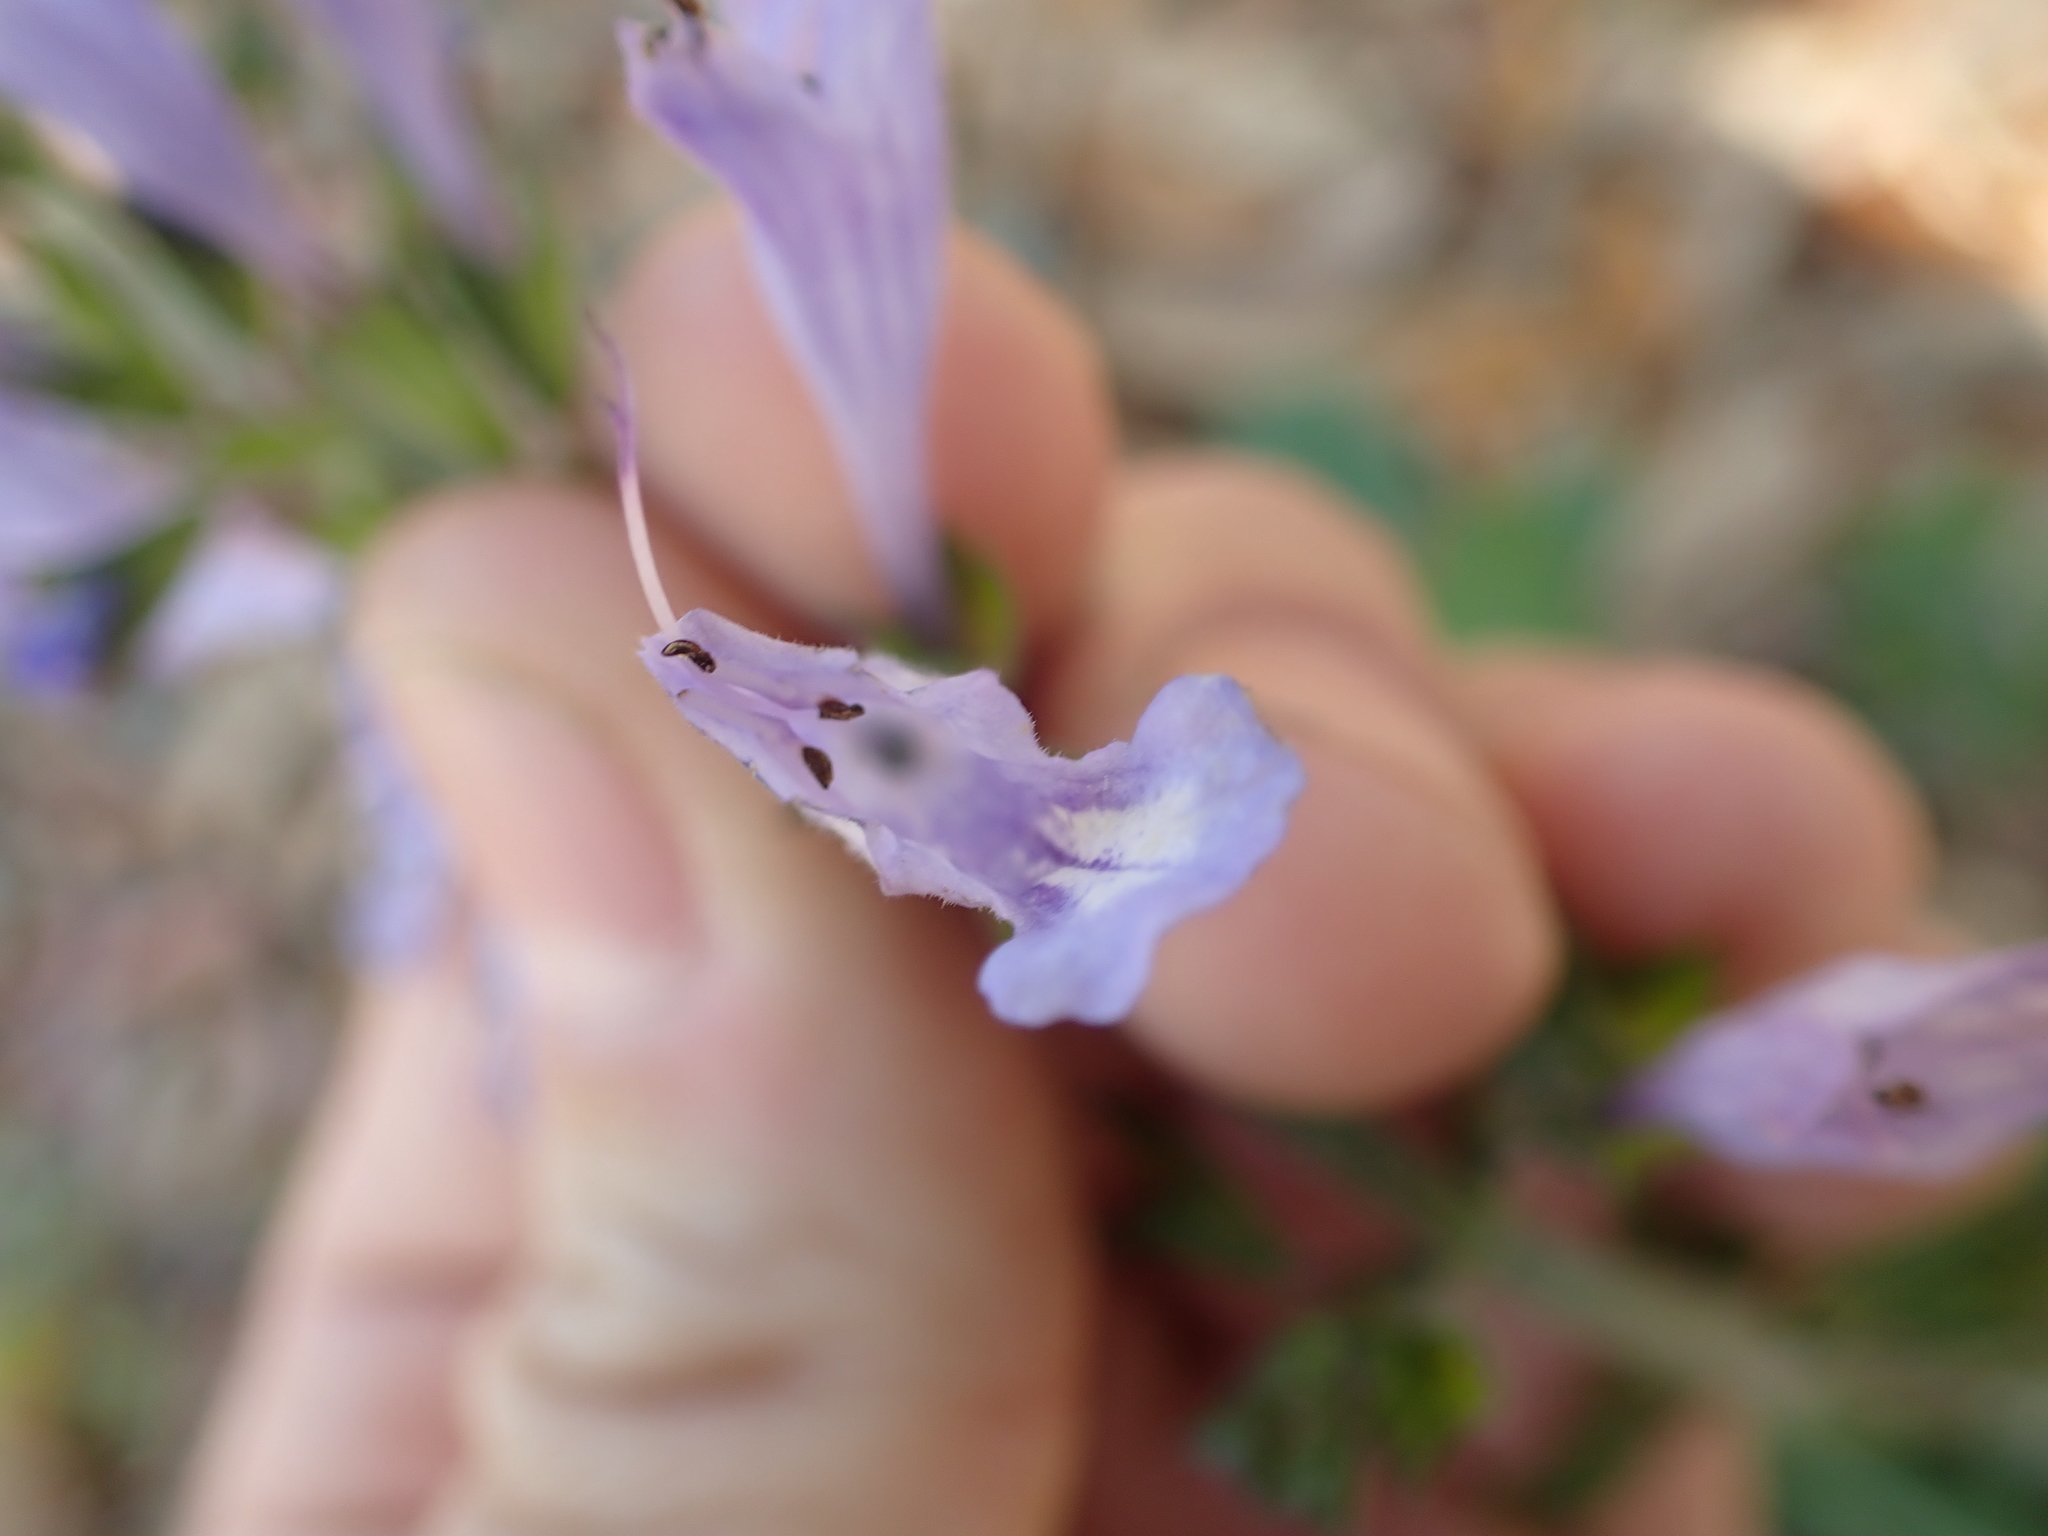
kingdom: Plantae
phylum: Tracheophyta
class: Magnoliopsida
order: Lamiales
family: Lamiaceae
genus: Salvia
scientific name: Salvia lyrata
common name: Cancerweed
